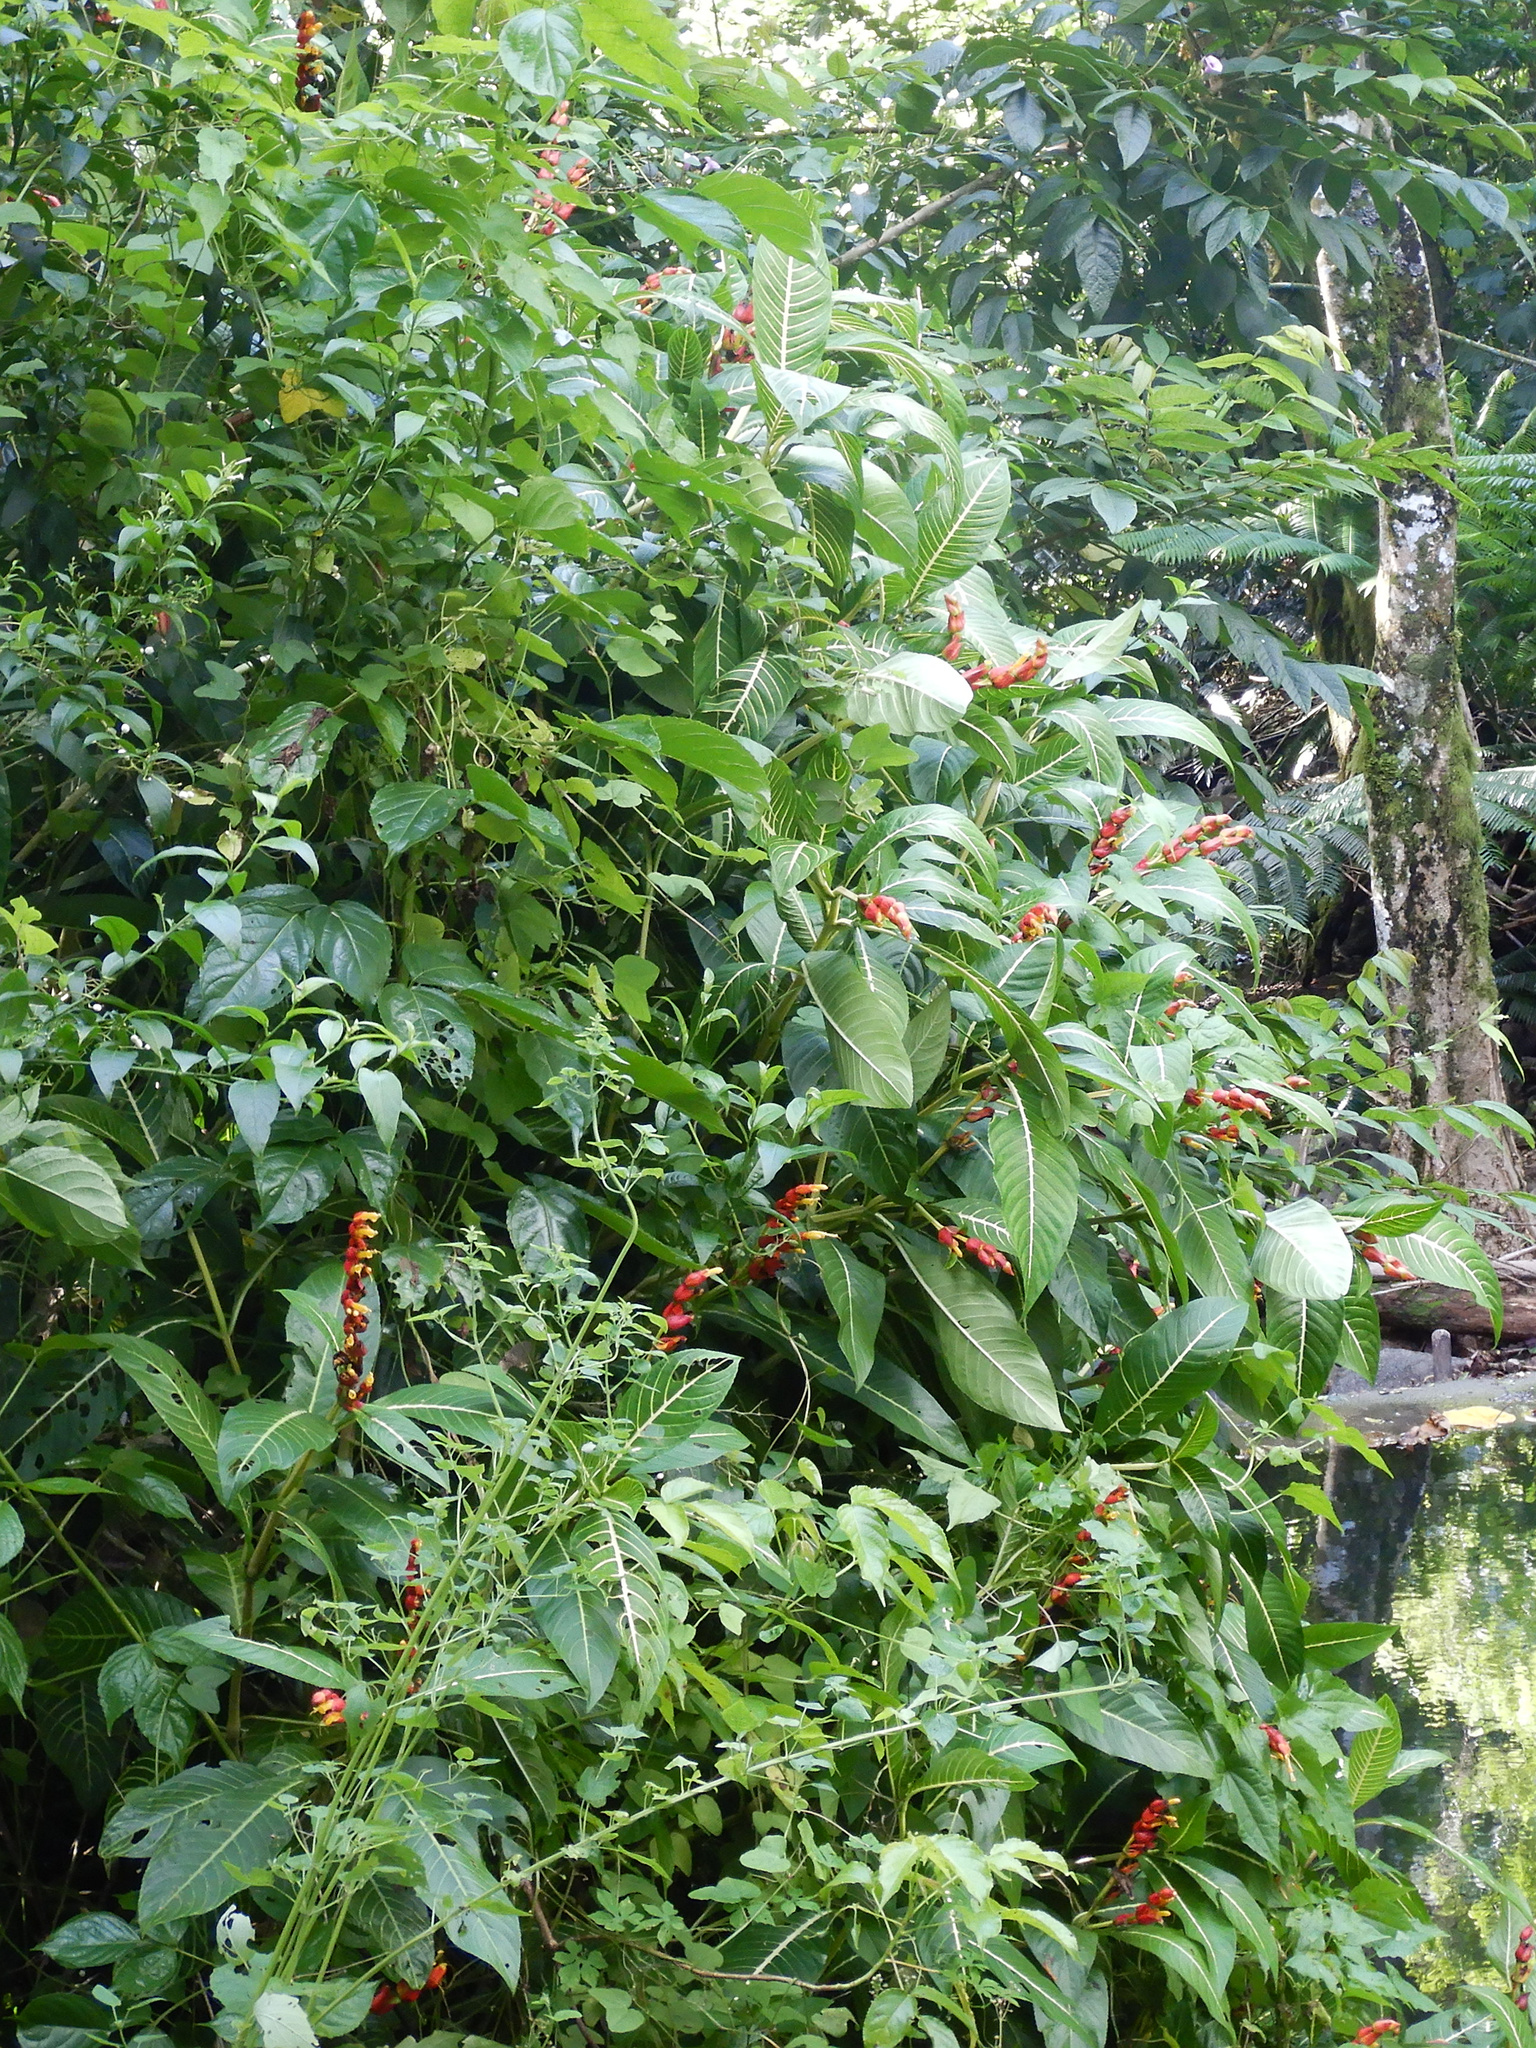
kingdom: Plantae
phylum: Tracheophyta
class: Magnoliopsida
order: Lamiales
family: Acanthaceae
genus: Sanchezia
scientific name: Sanchezia oblonga
